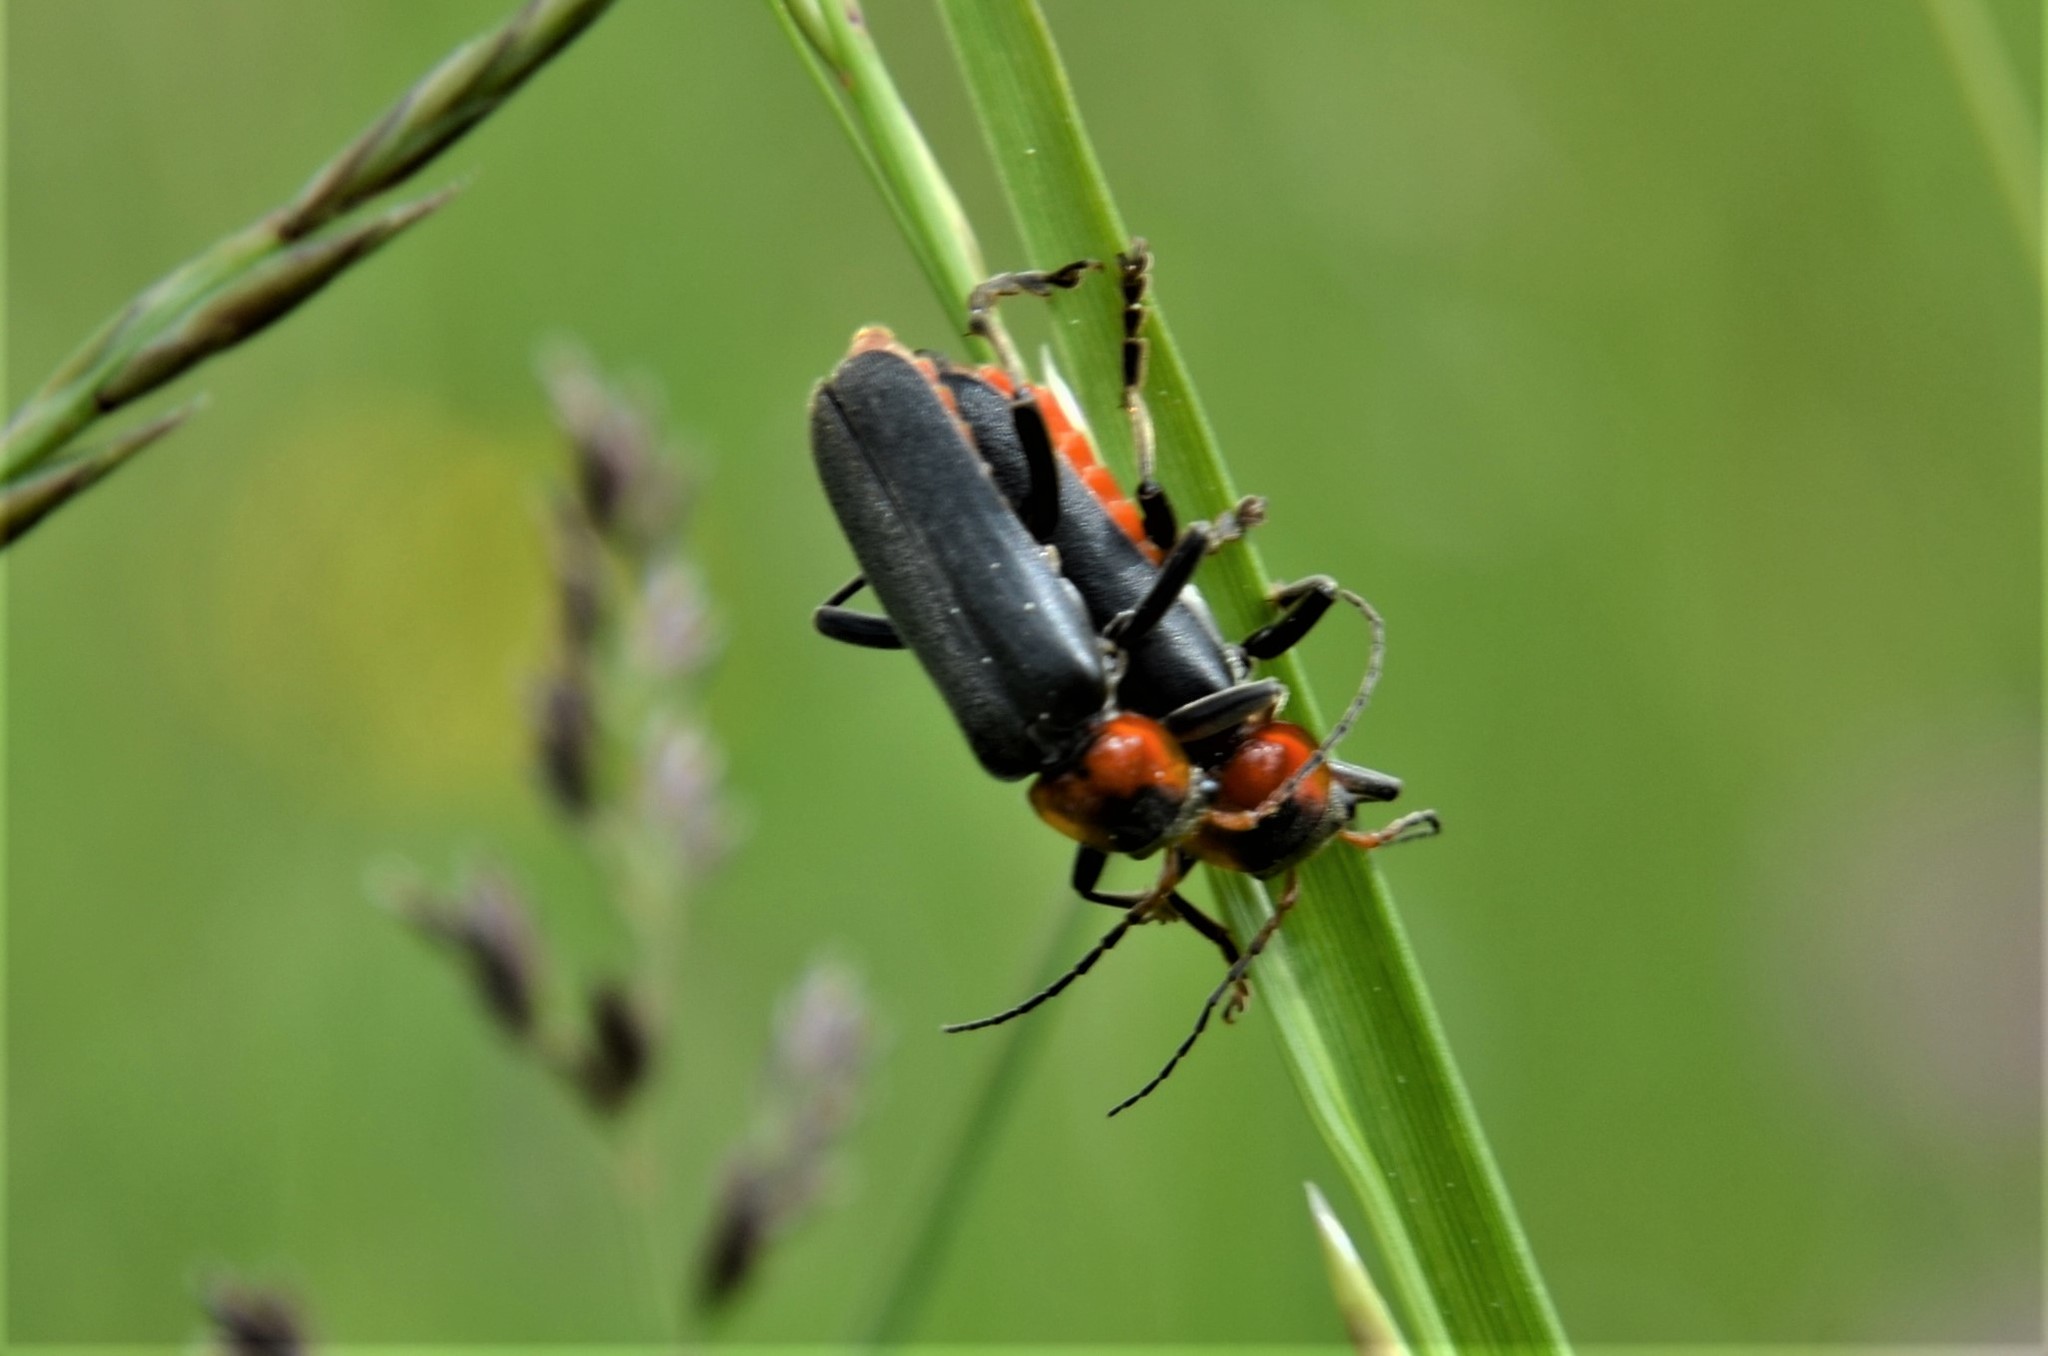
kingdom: Animalia
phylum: Arthropoda
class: Insecta
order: Coleoptera
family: Cantharidae
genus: Cantharis
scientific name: Cantharis fusca
